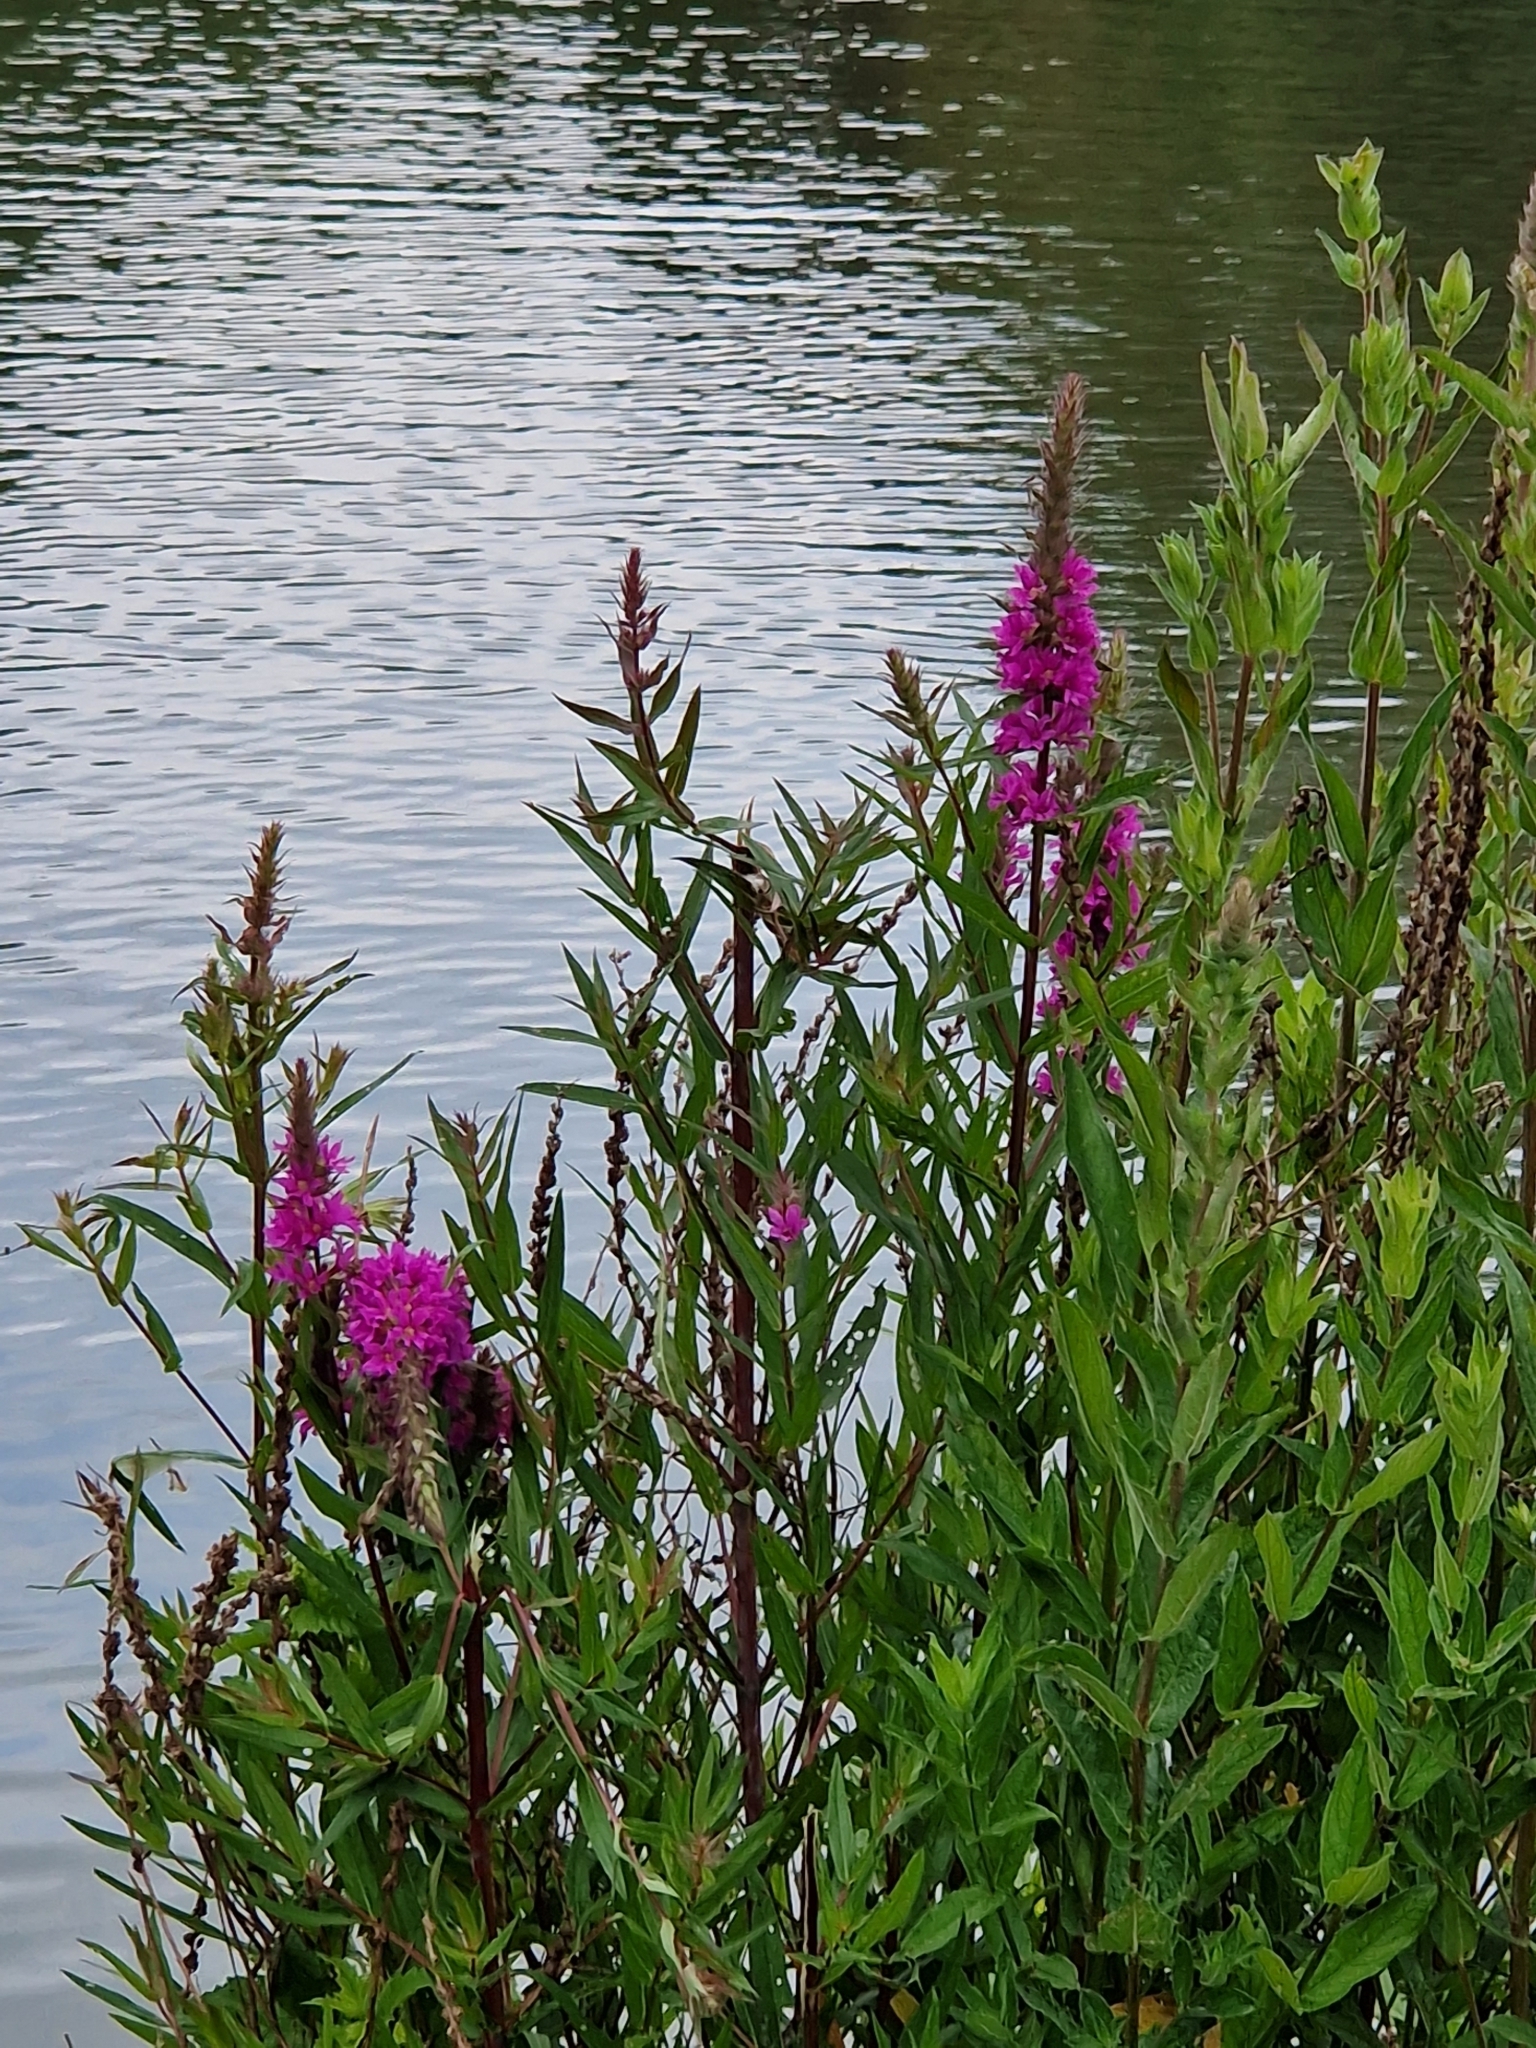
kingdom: Plantae
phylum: Tracheophyta
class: Magnoliopsida
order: Myrtales
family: Lythraceae
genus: Lythrum
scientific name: Lythrum salicaria
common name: Purple loosestrife
